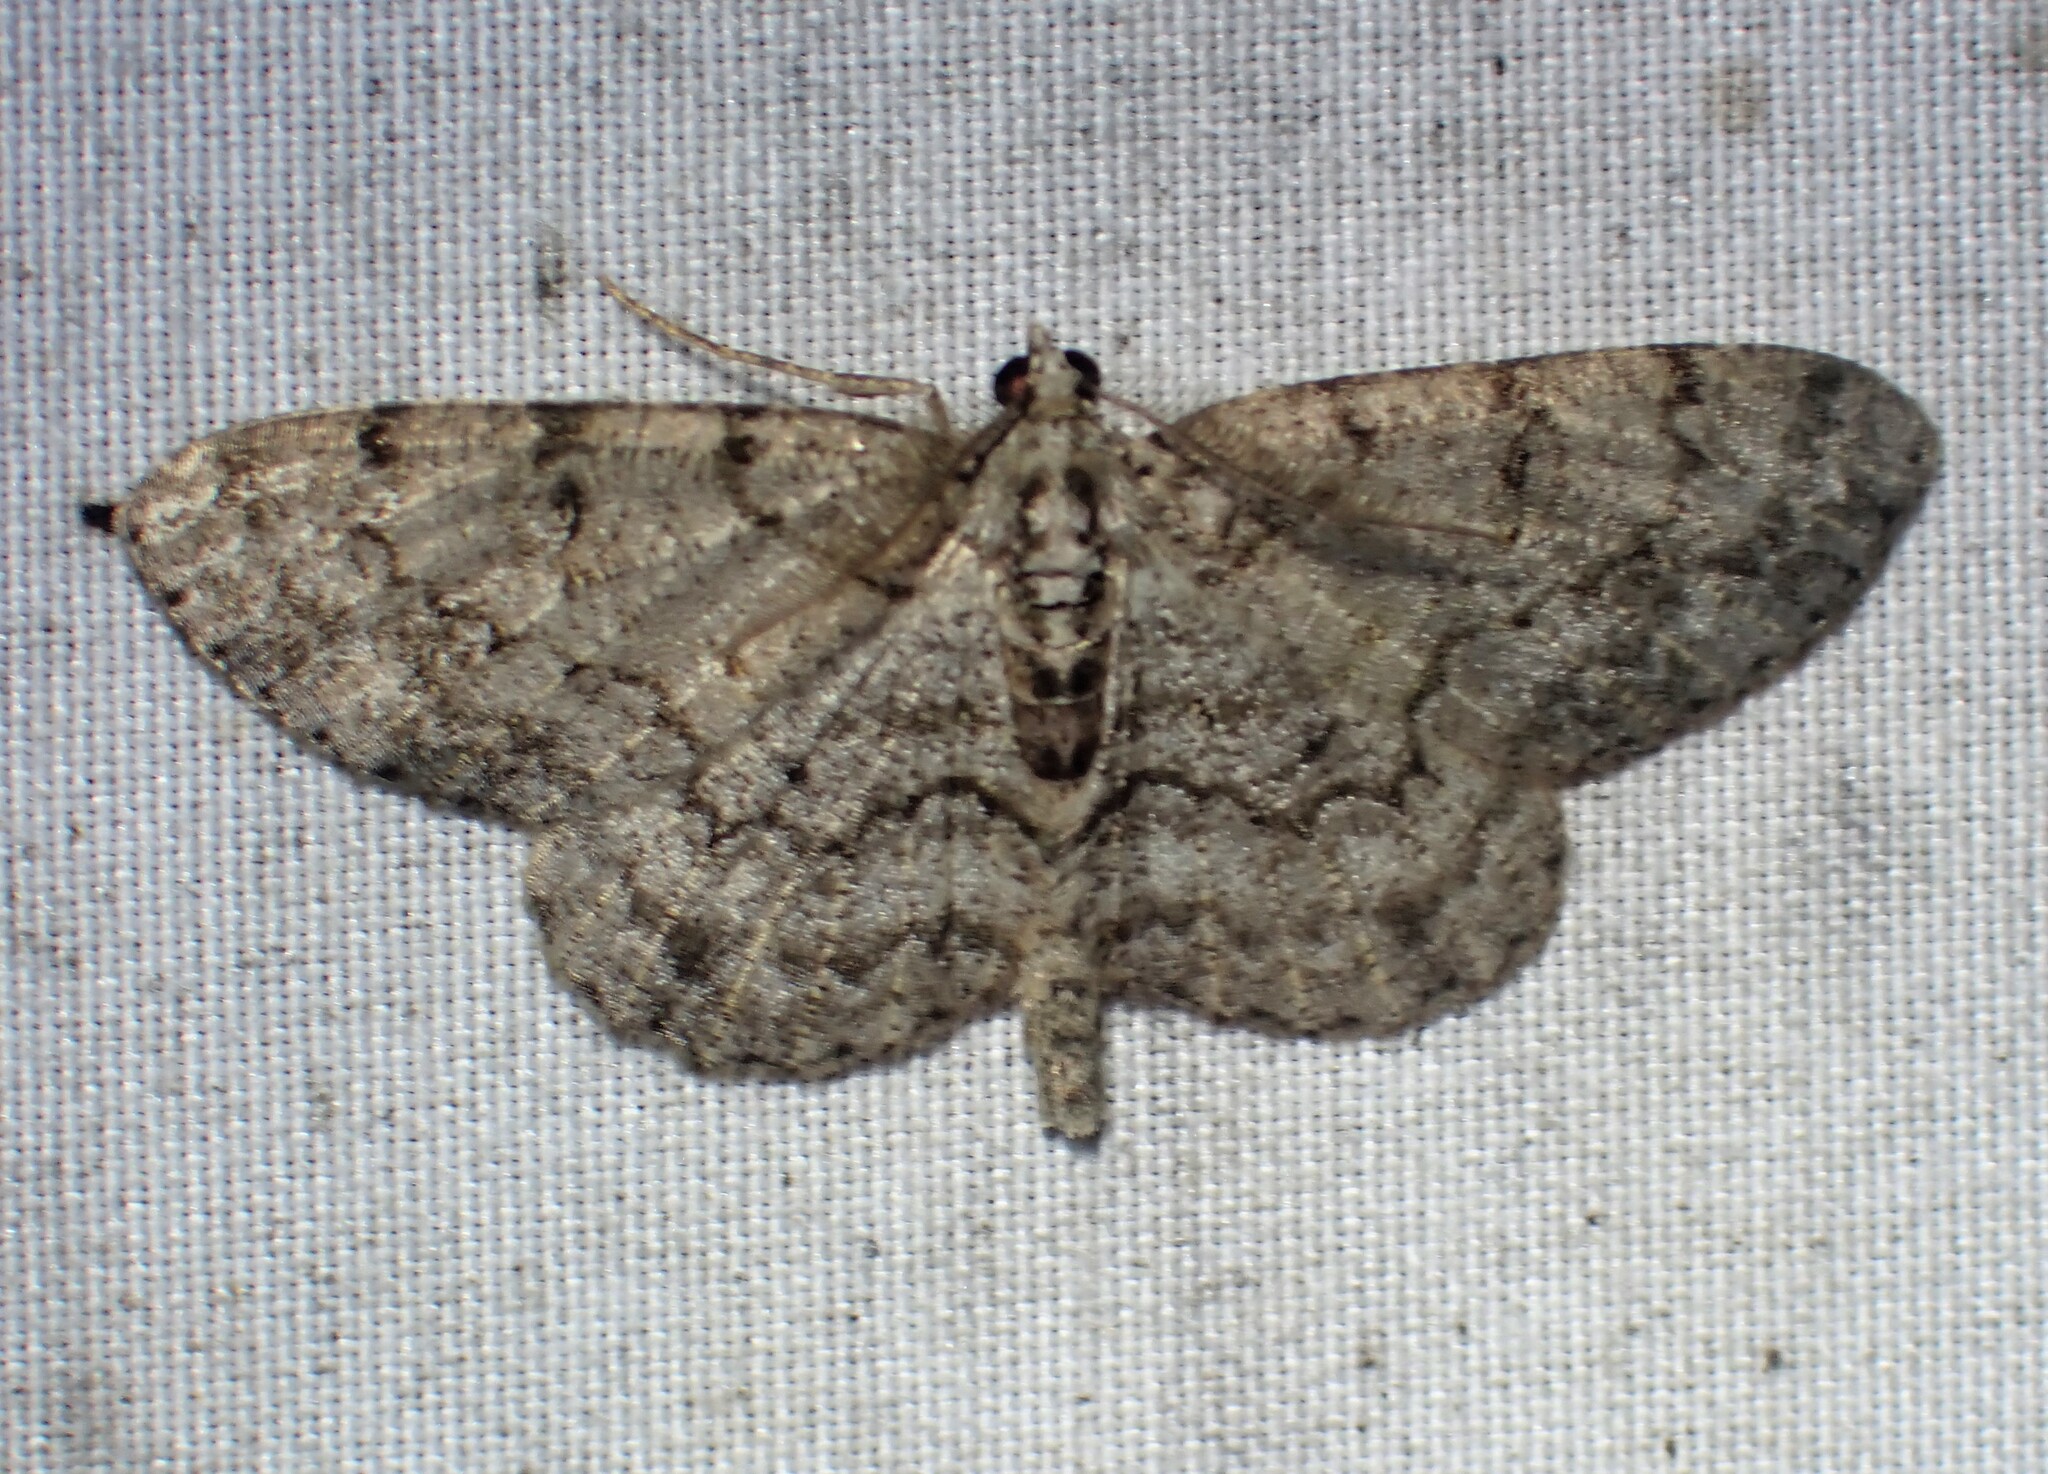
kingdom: Animalia
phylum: Arthropoda
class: Insecta
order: Lepidoptera
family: Geometridae
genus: Protoboarmia
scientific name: Protoboarmia porcelaria
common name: Porcelain gray
